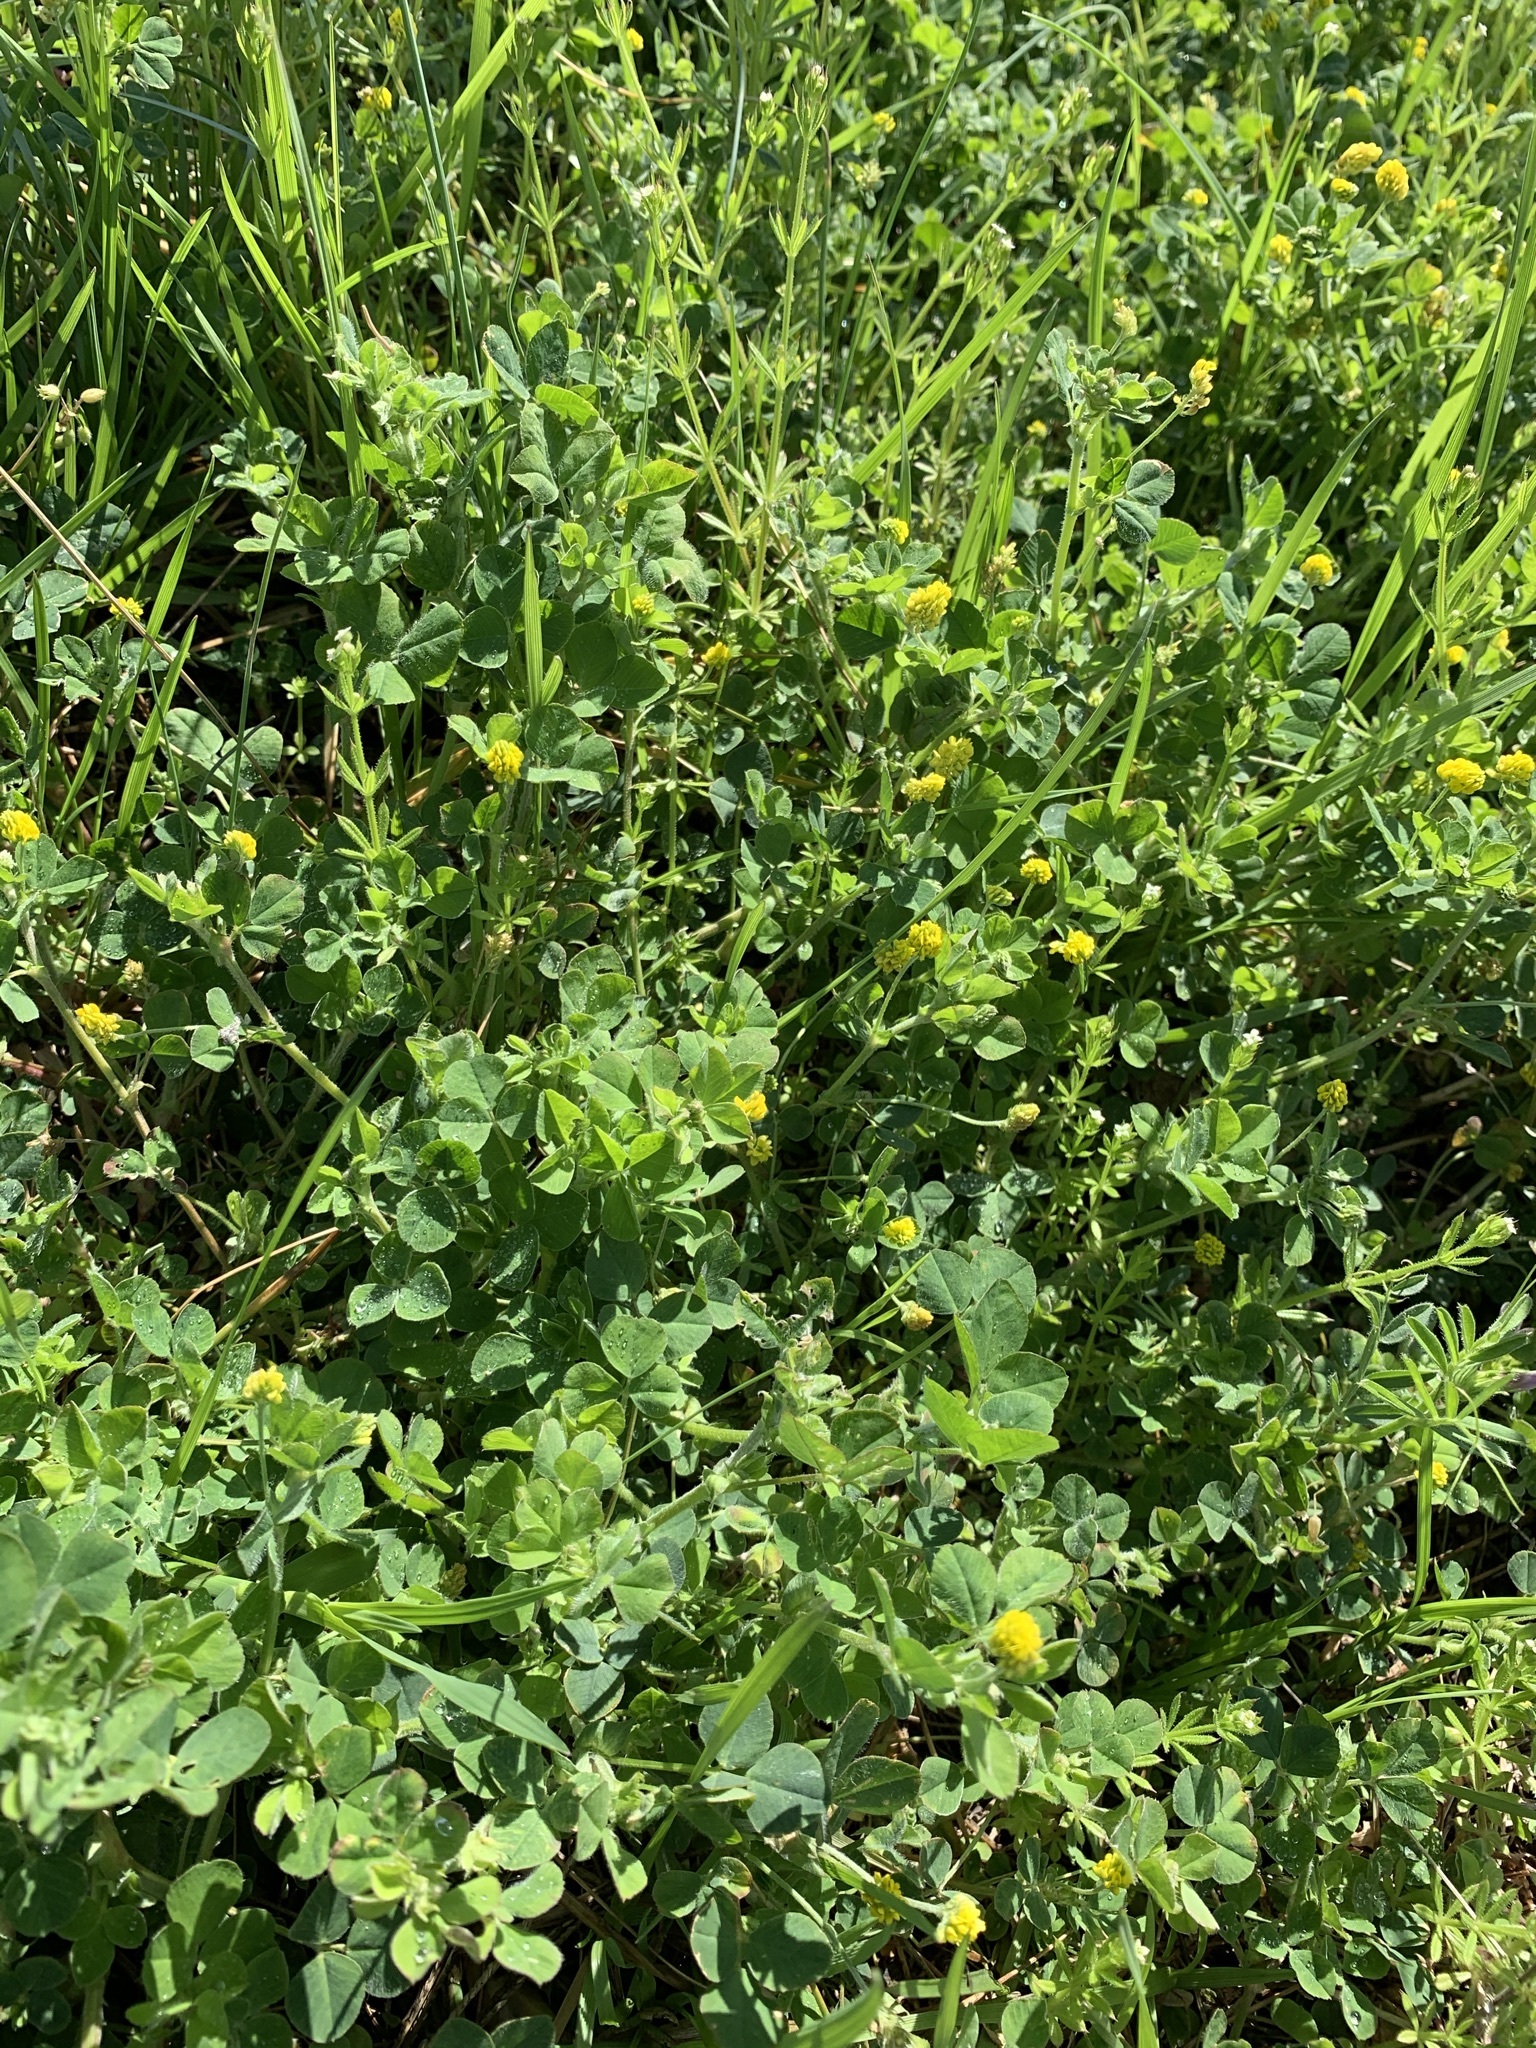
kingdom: Plantae
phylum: Tracheophyta
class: Magnoliopsida
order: Fabales
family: Fabaceae
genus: Medicago
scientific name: Medicago lupulina
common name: Black medick
